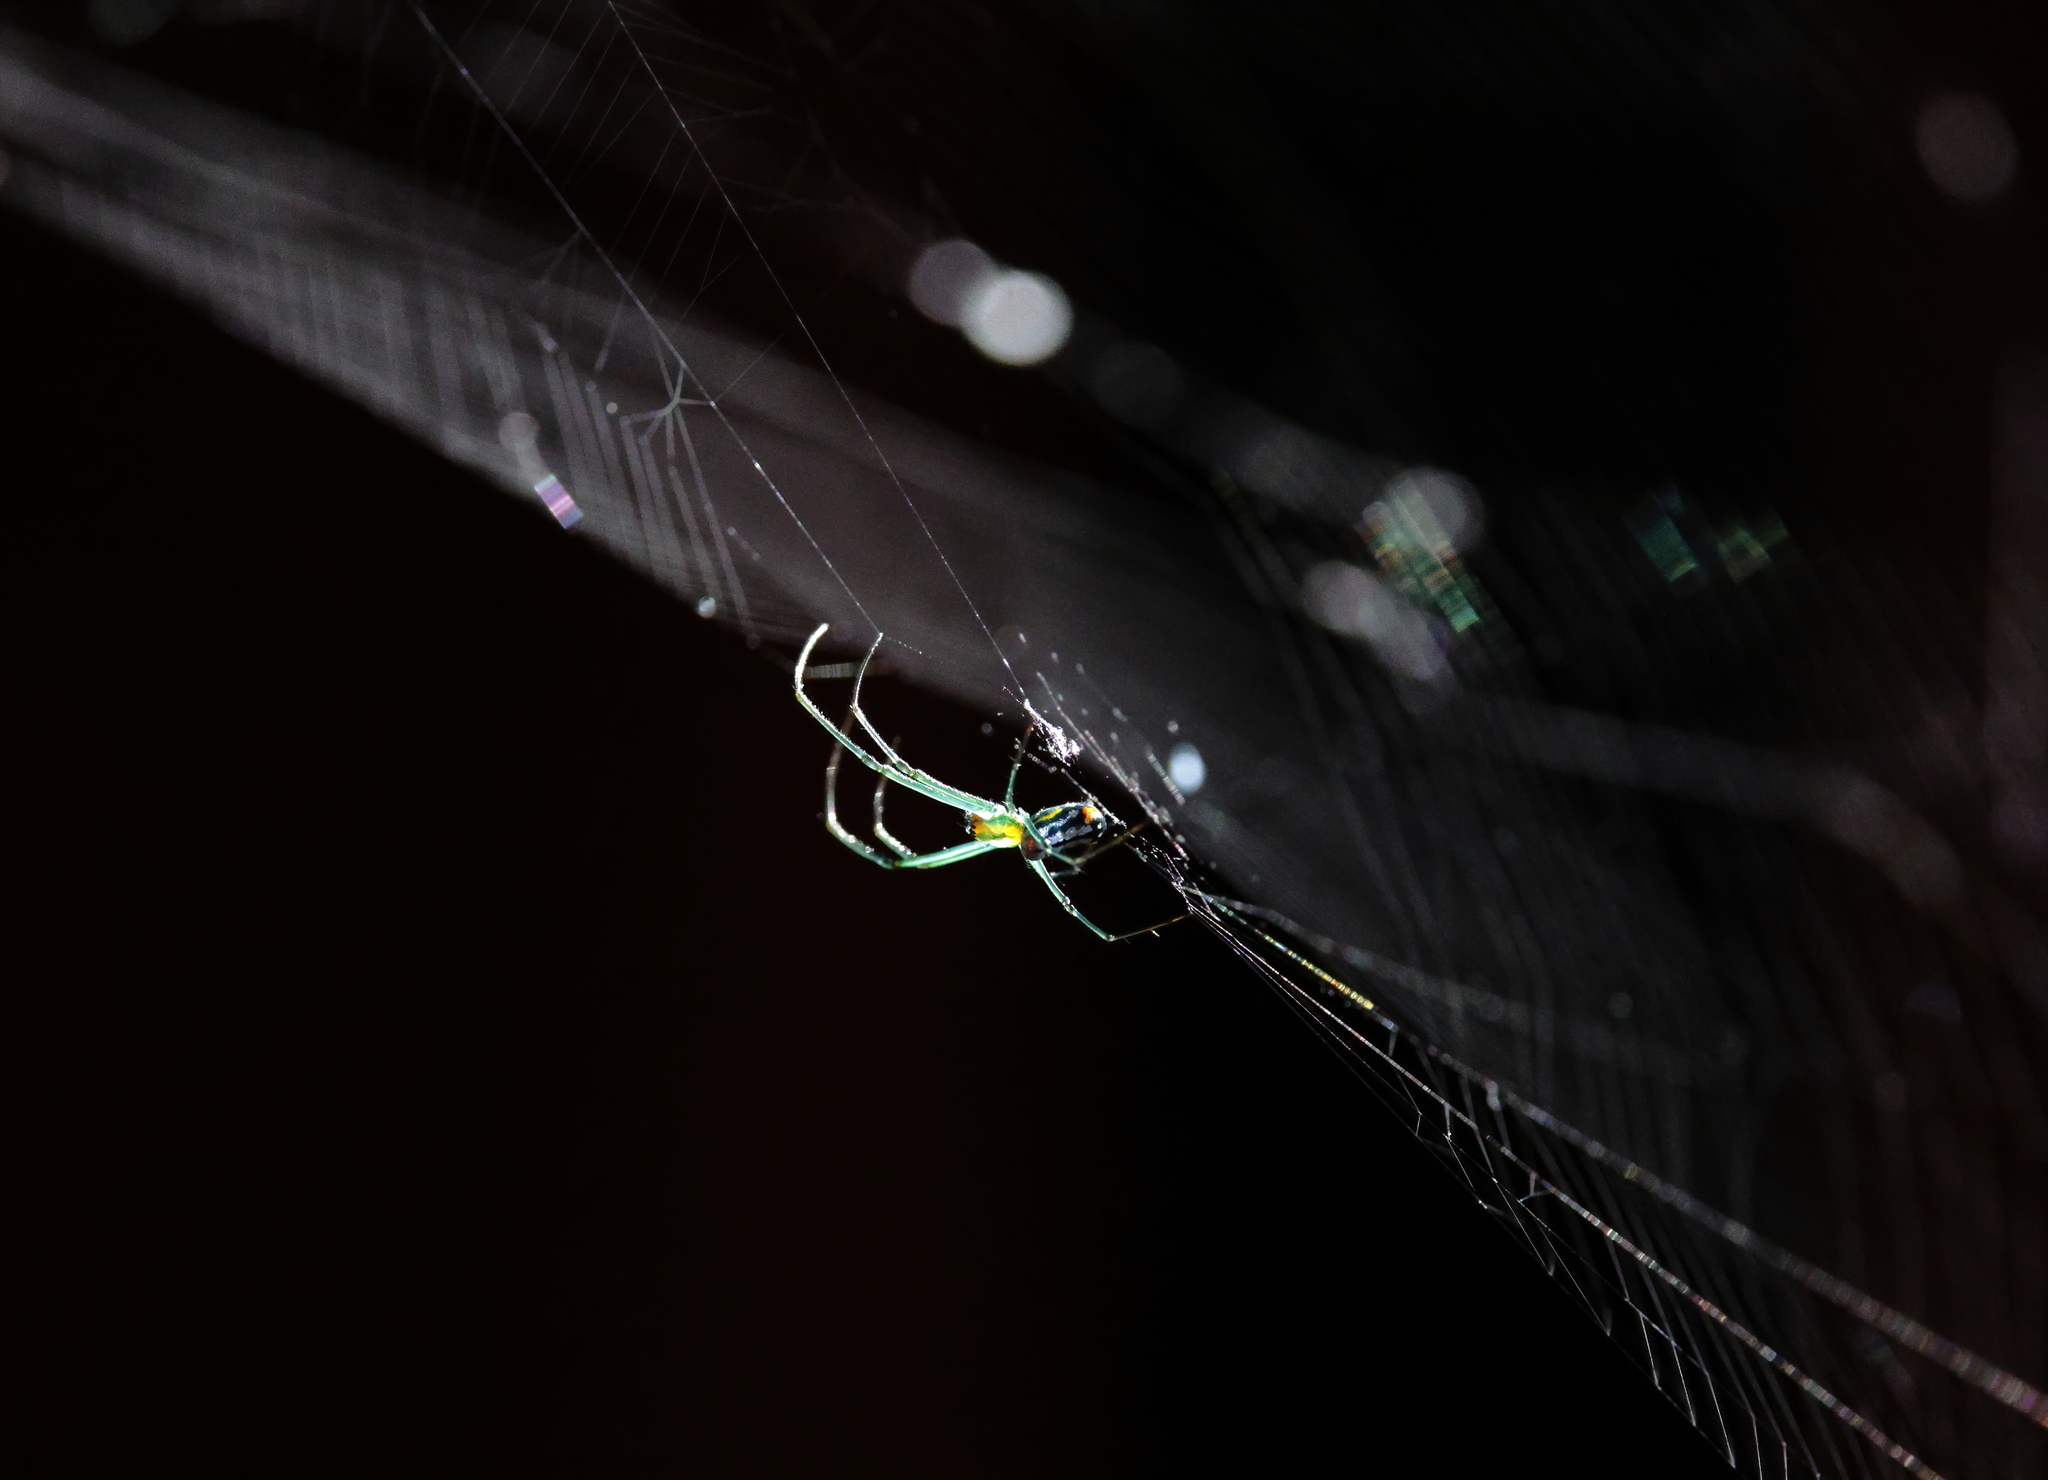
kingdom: Animalia
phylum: Arthropoda
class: Arachnida
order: Araneae
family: Tetragnathidae
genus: Leucauge
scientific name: Leucauge argyrobapta
